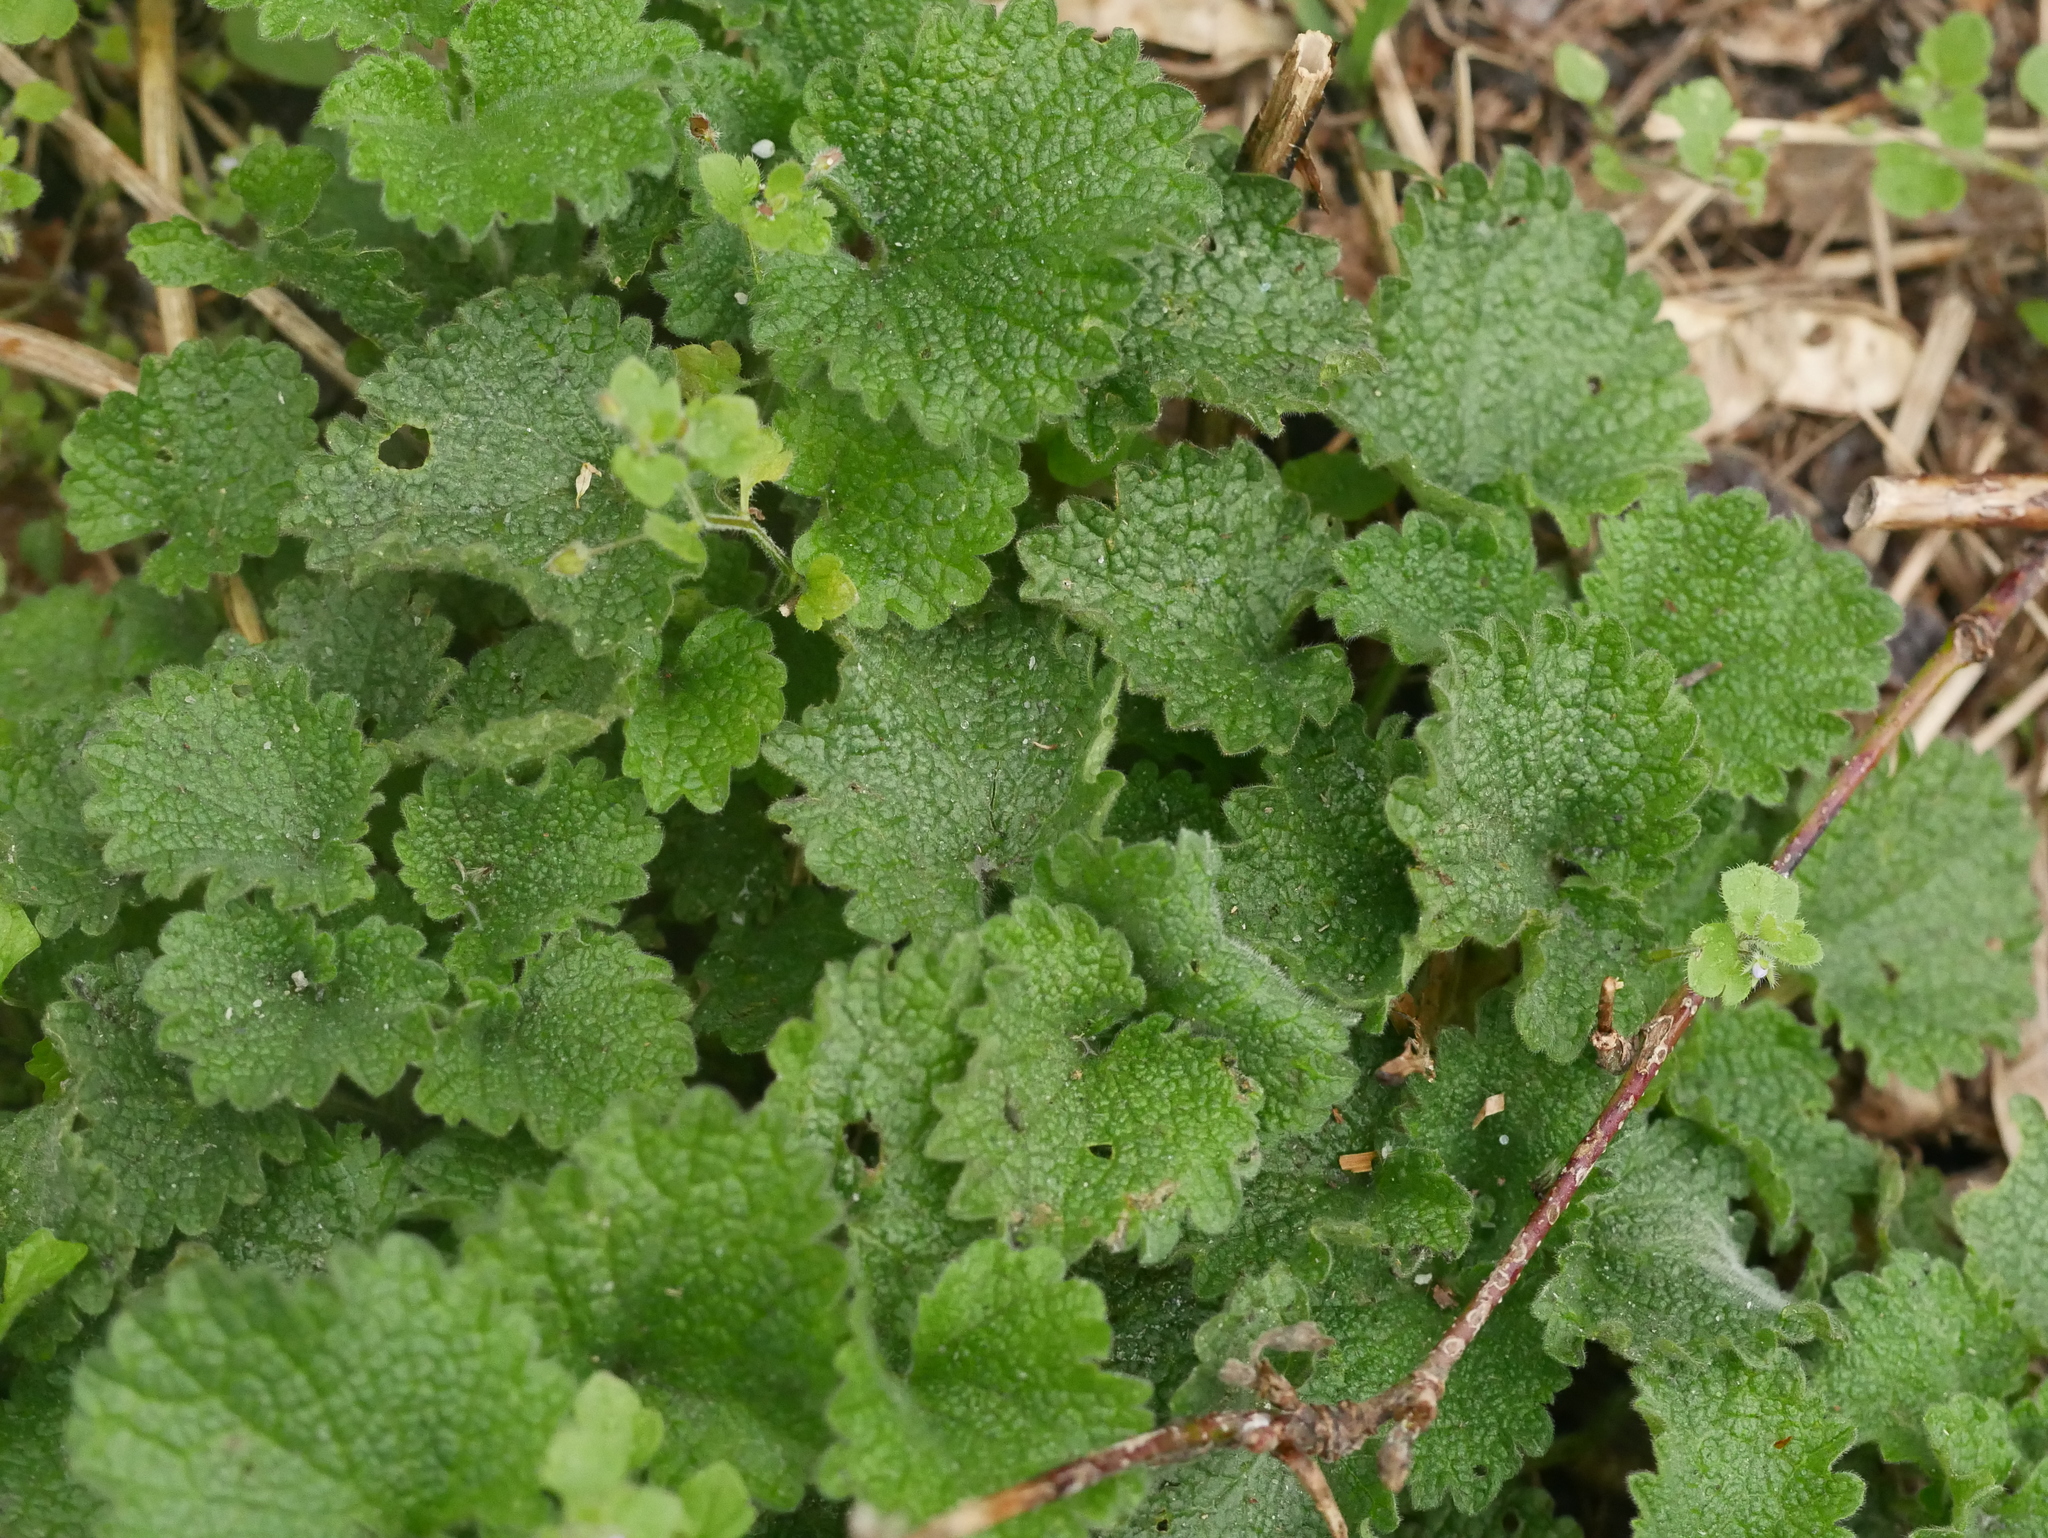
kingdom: Plantae
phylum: Tracheophyta
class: Magnoliopsida
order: Lamiales
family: Lamiaceae
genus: Ballota
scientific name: Ballota nigra
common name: Black horehound
